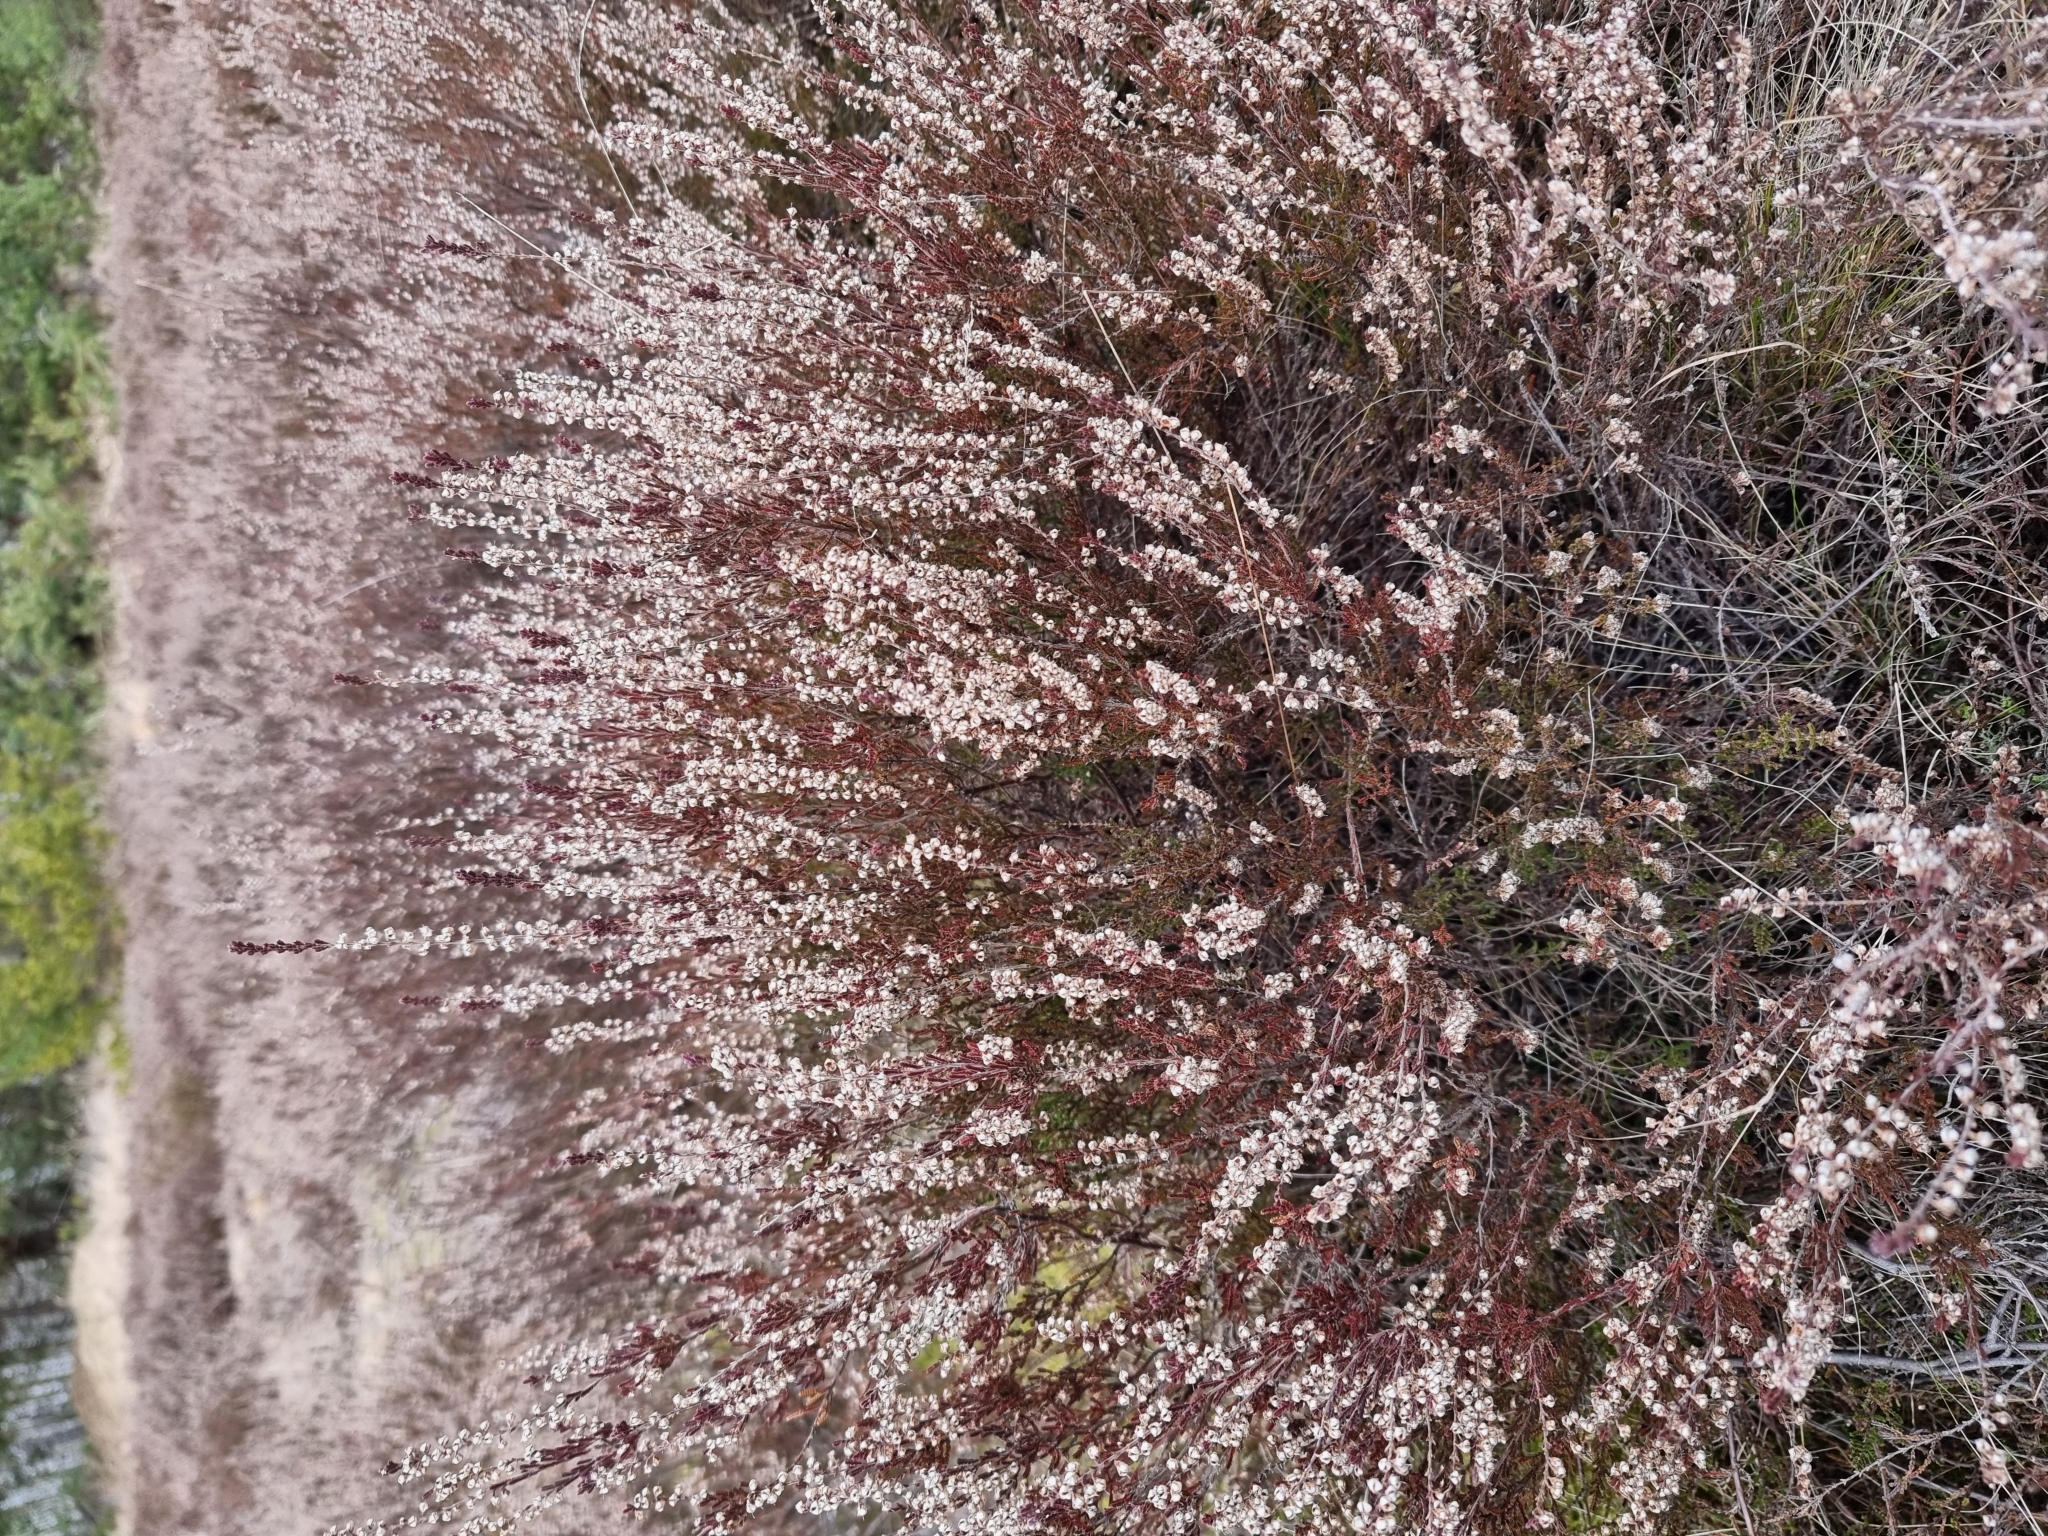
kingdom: Plantae
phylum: Tracheophyta
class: Magnoliopsida
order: Ericales
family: Ericaceae
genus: Calluna
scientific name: Calluna vulgaris
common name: Heather
